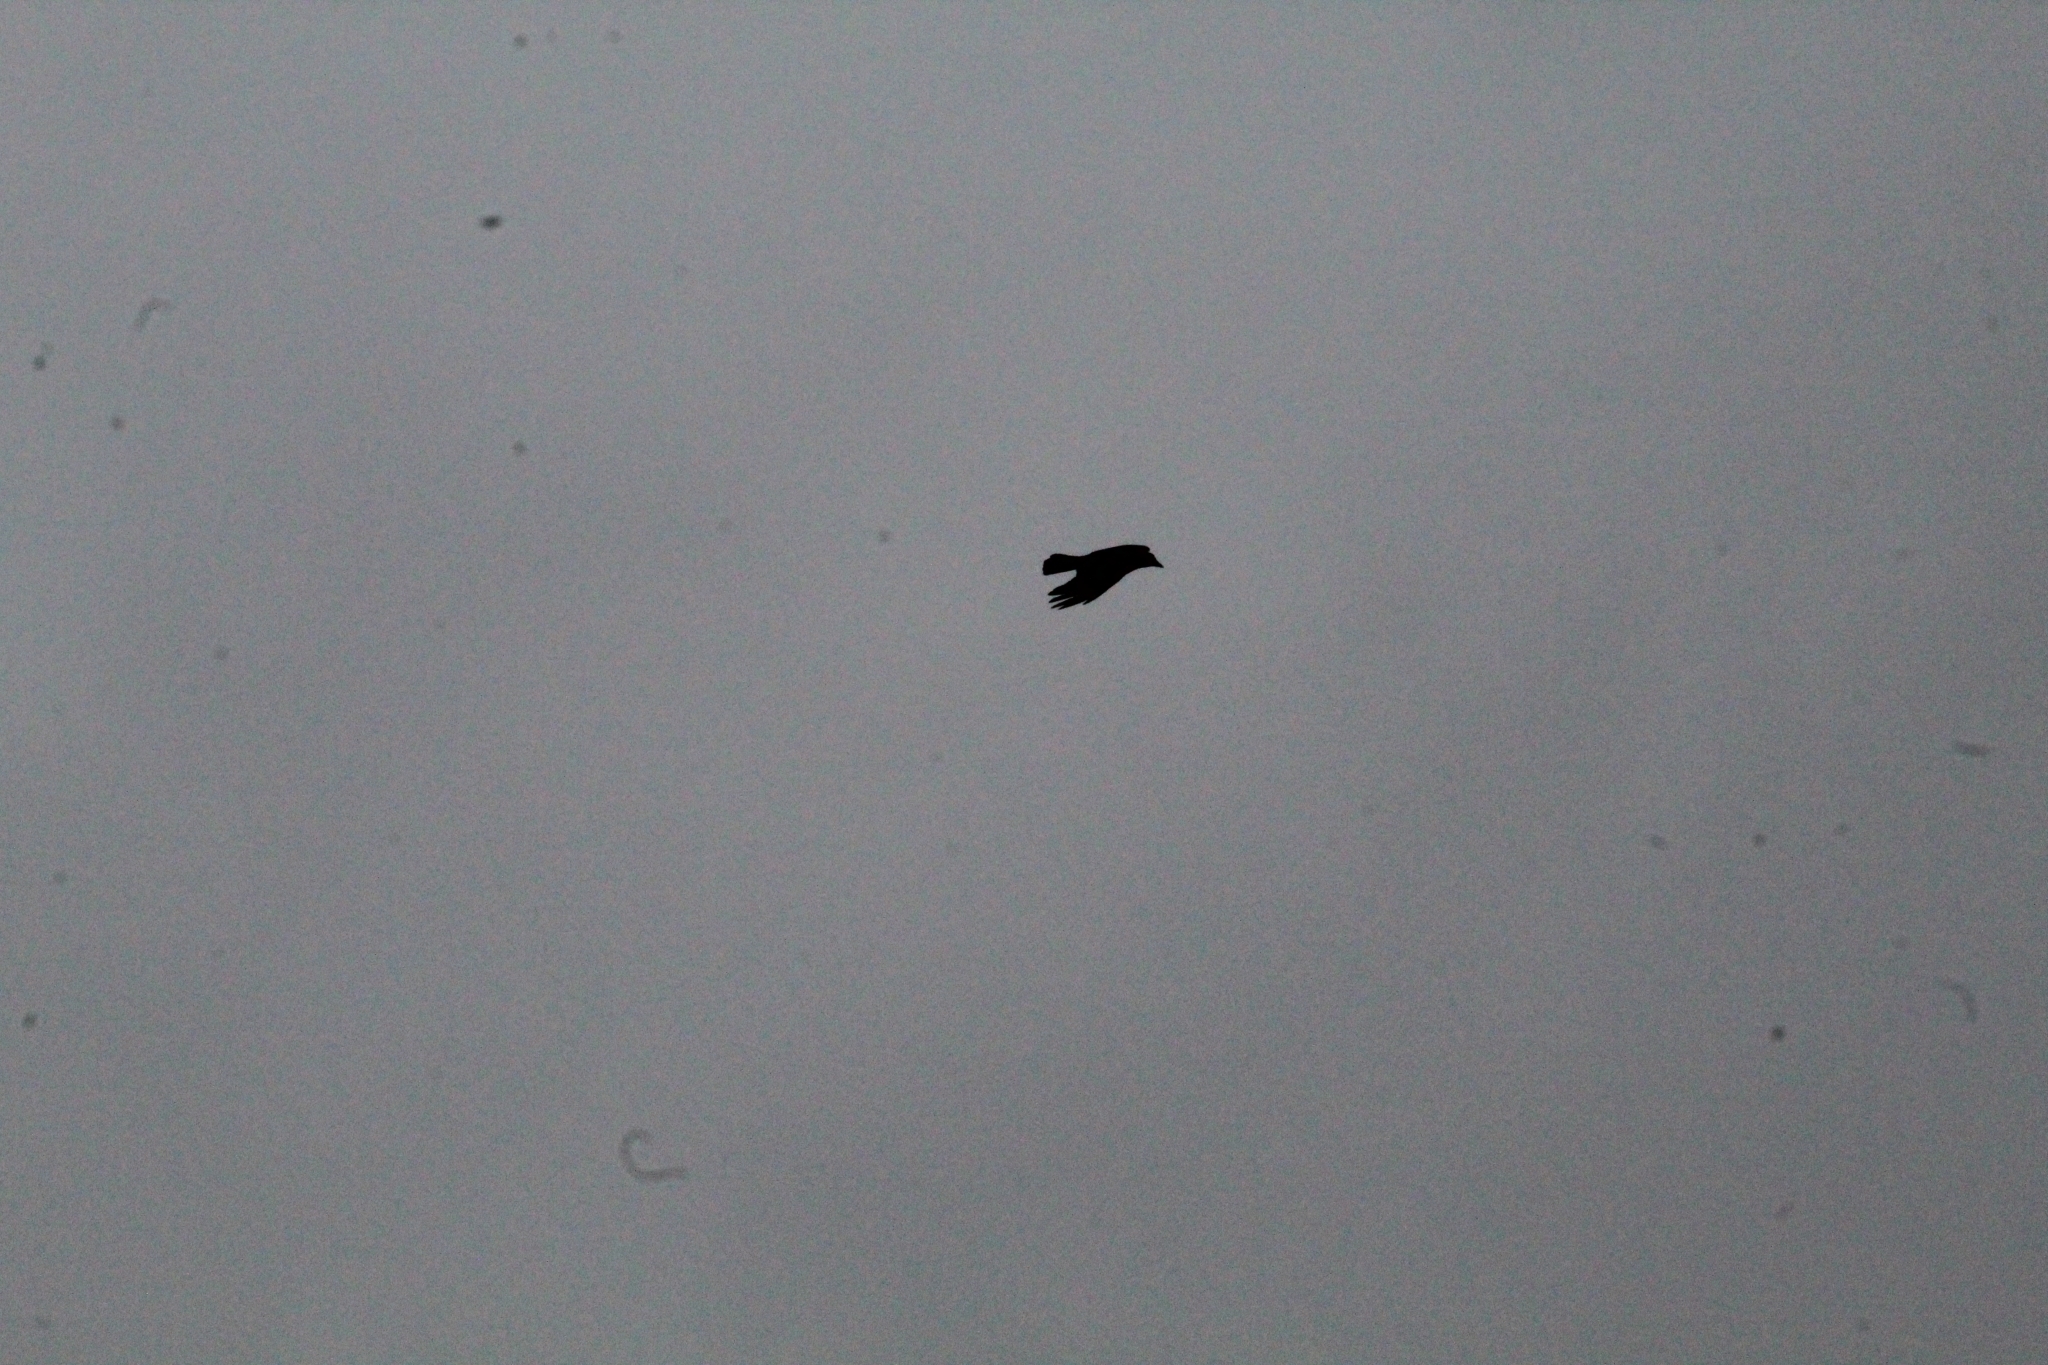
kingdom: Animalia
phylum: Chordata
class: Aves
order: Passeriformes
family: Corvidae
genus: Corvus
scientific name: Corvus corone
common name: Carrion crow
